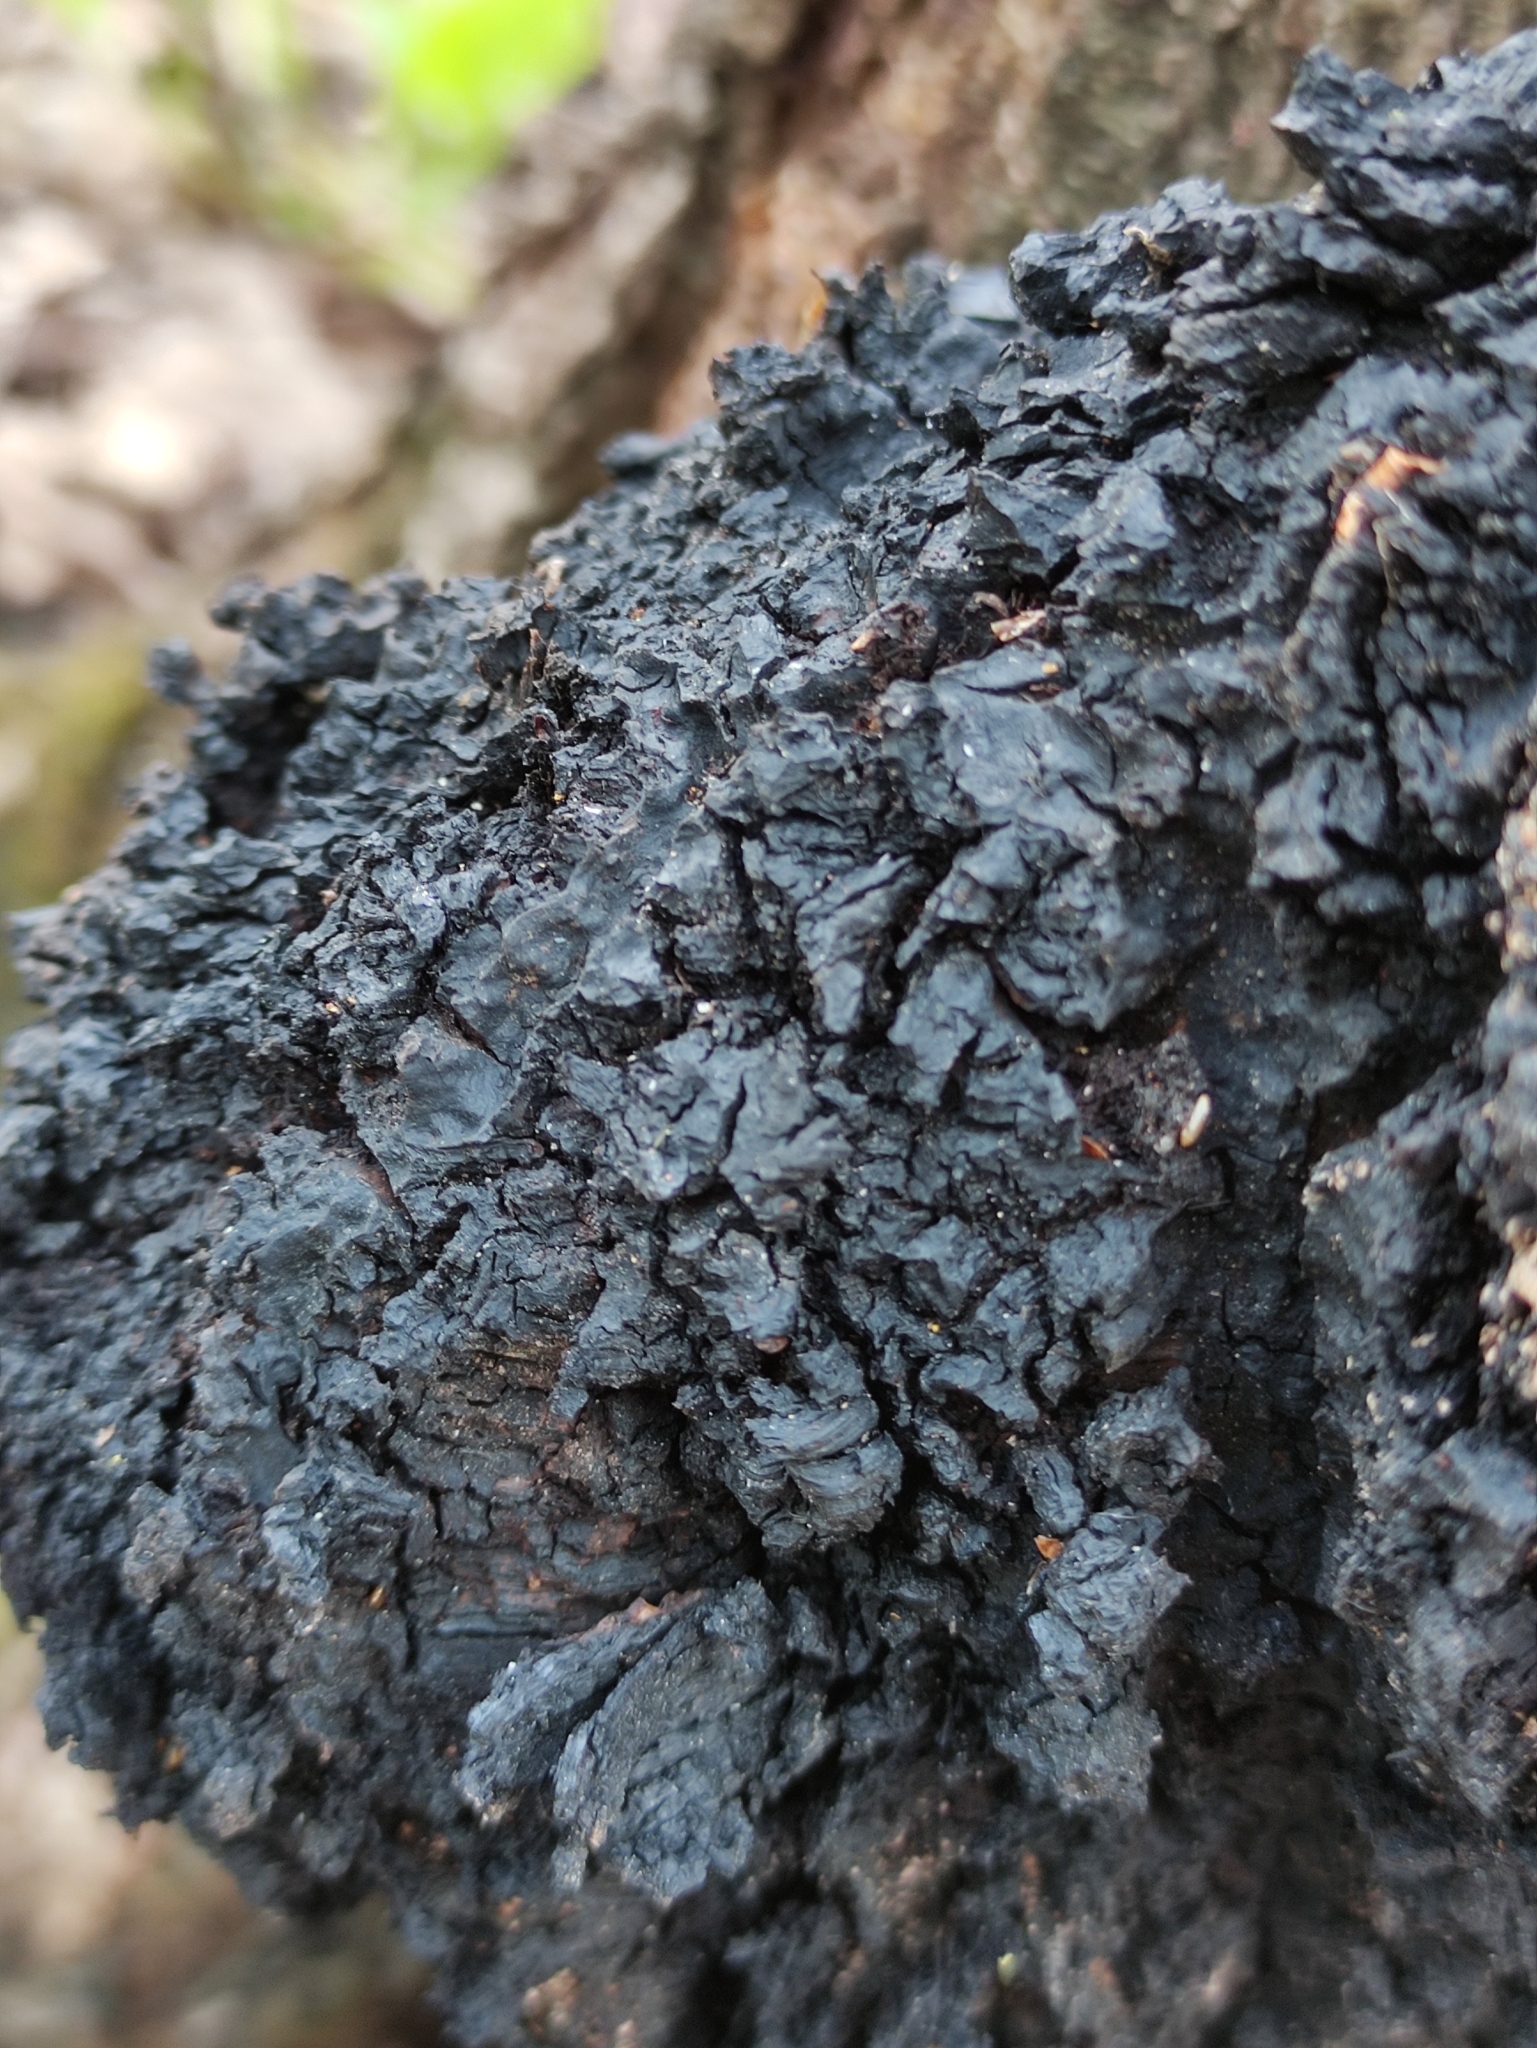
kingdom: Fungi
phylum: Basidiomycota
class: Agaricomycetes
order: Hymenochaetales
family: Hymenochaetaceae
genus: Inonotus
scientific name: Inonotus obliquus
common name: Chaga
